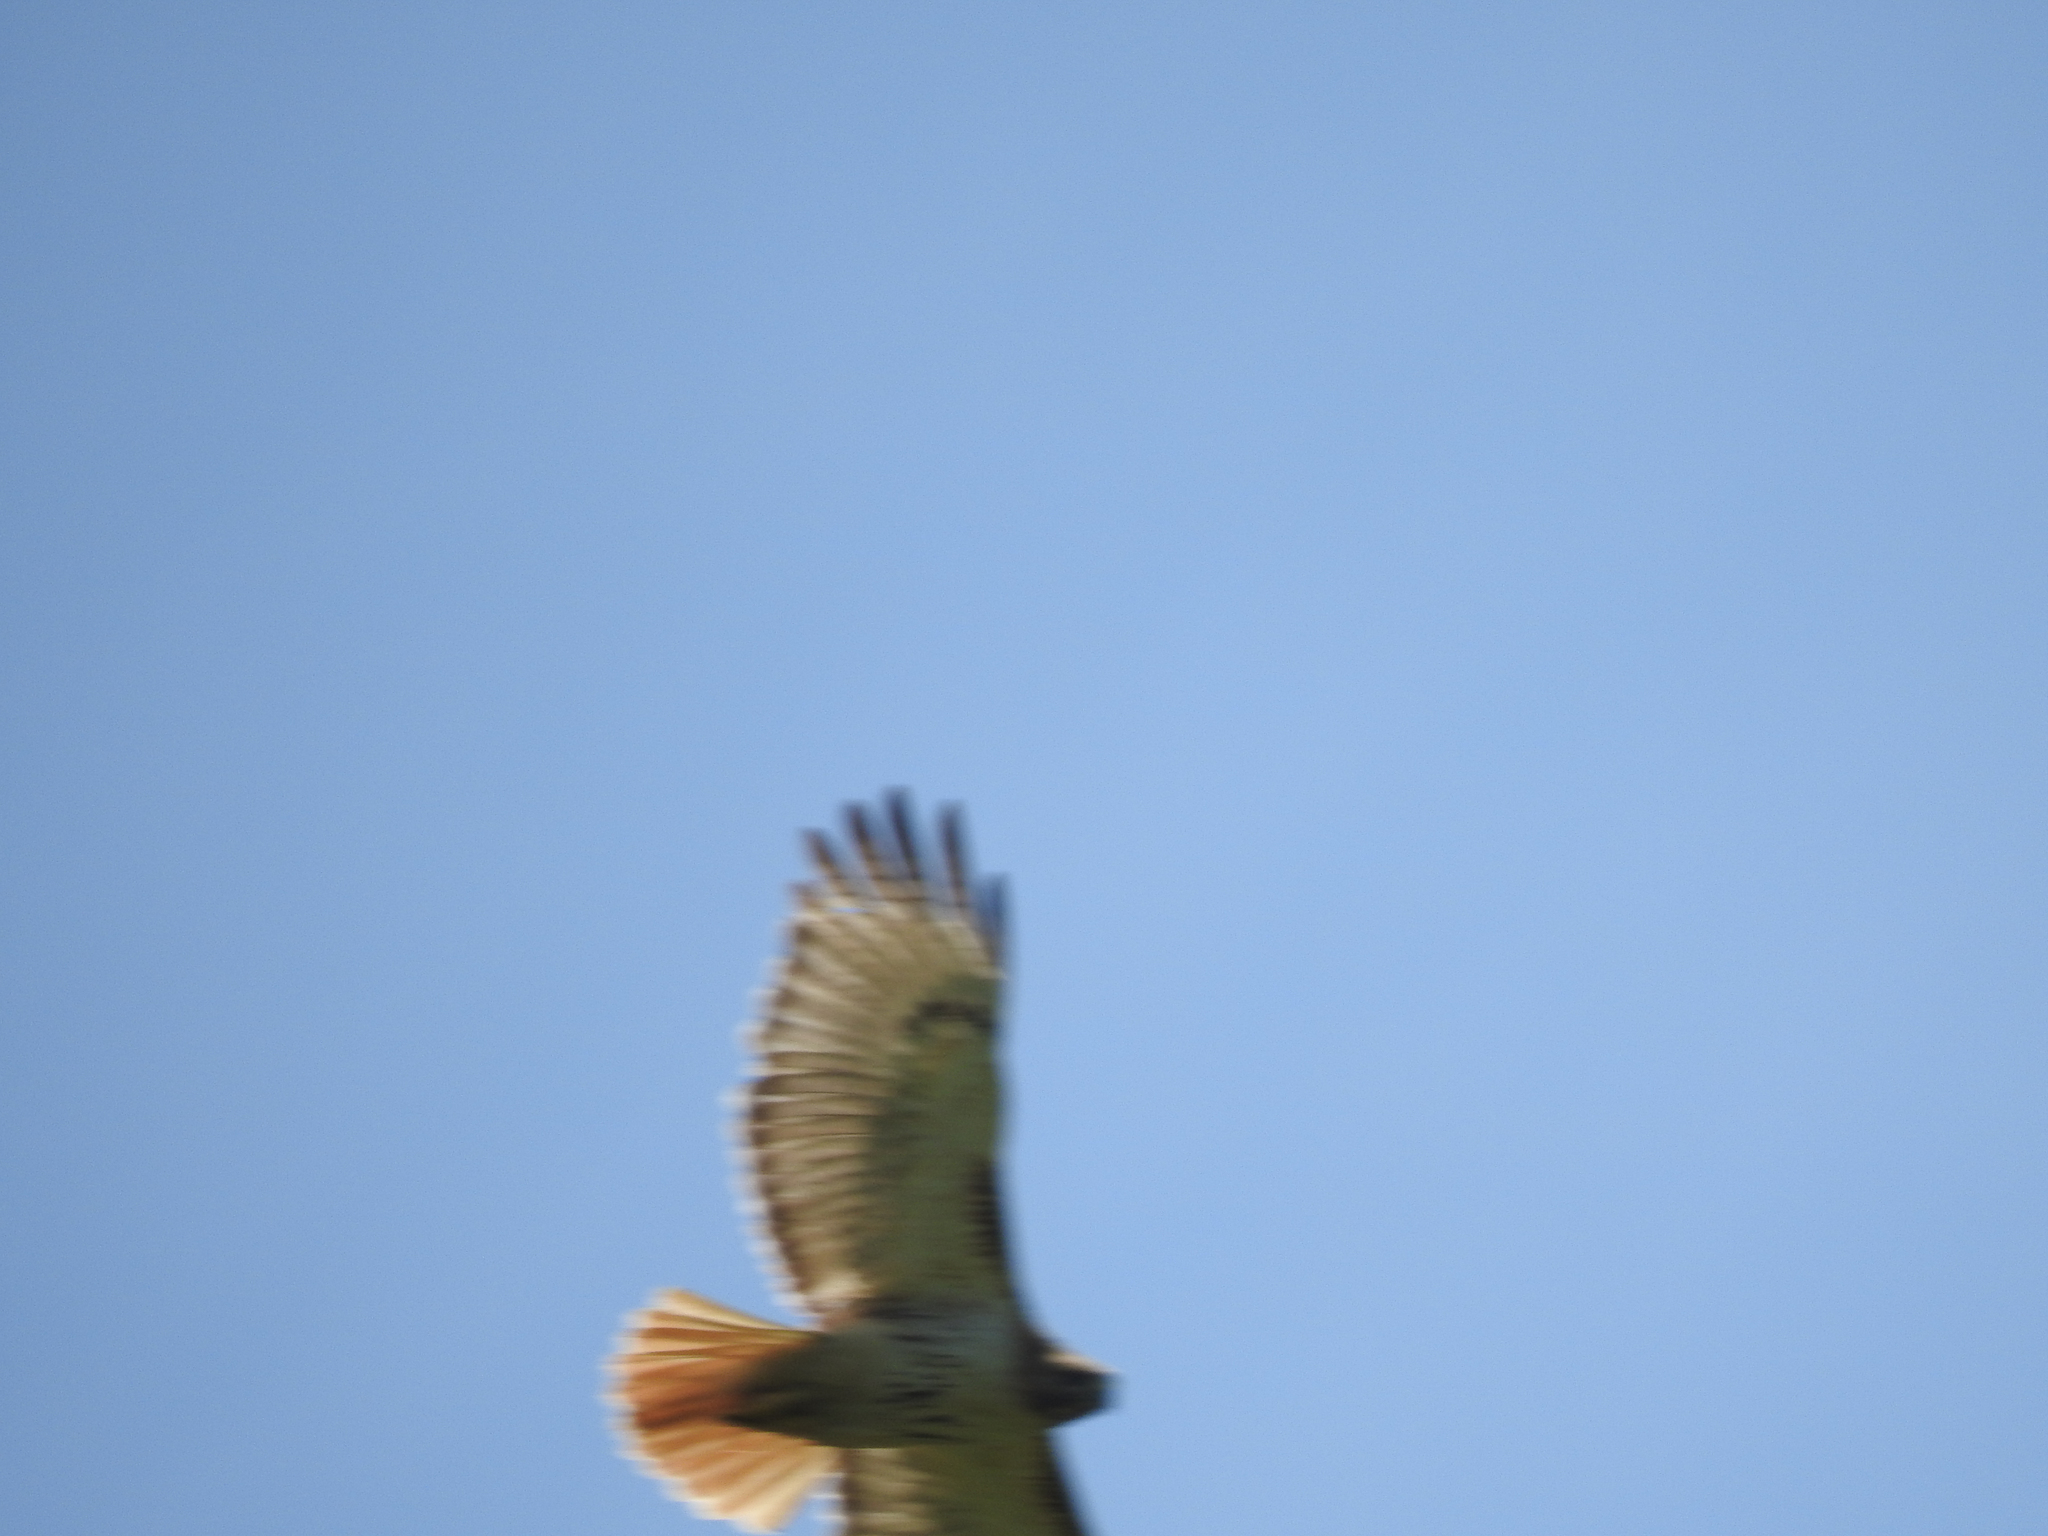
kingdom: Animalia
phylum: Chordata
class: Aves
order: Accipitriformes
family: Accipitridae
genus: Buteo
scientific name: Buteo jamaicensis
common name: Red-tailed hawk
